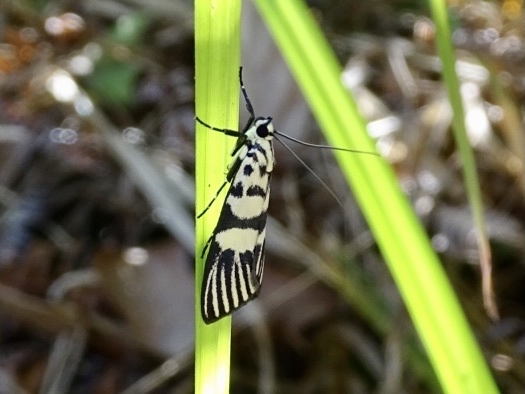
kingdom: Animalia
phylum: Arthropoda
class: Insecta
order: Lepidoptera
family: Crambidae
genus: Heortia
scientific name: Heortia vitessoides
